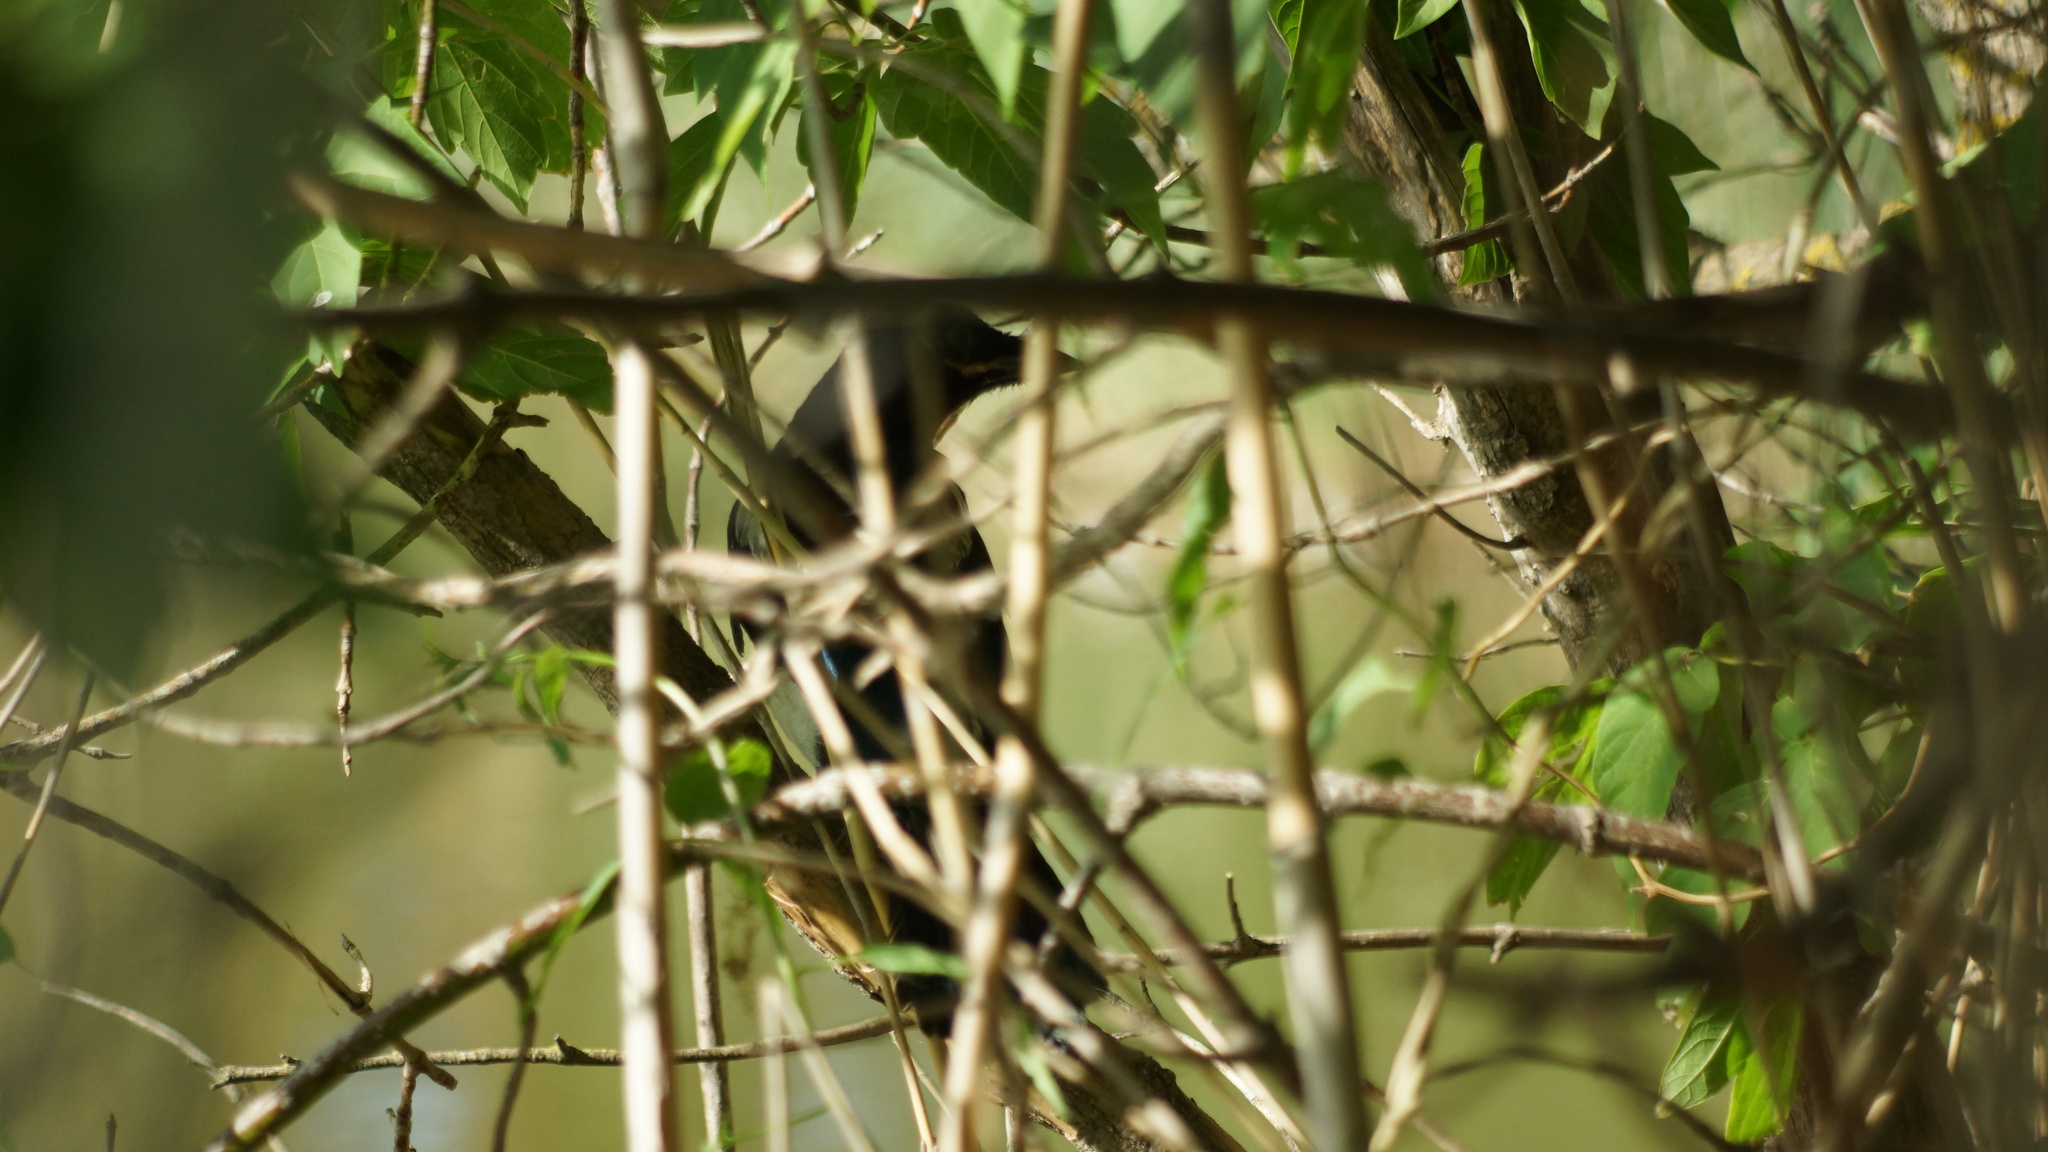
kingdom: Animalia
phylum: Chordata
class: Aves
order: Passeriformes
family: Corvidae
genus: Pica
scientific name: Pica pica
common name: Eurasian magpie
